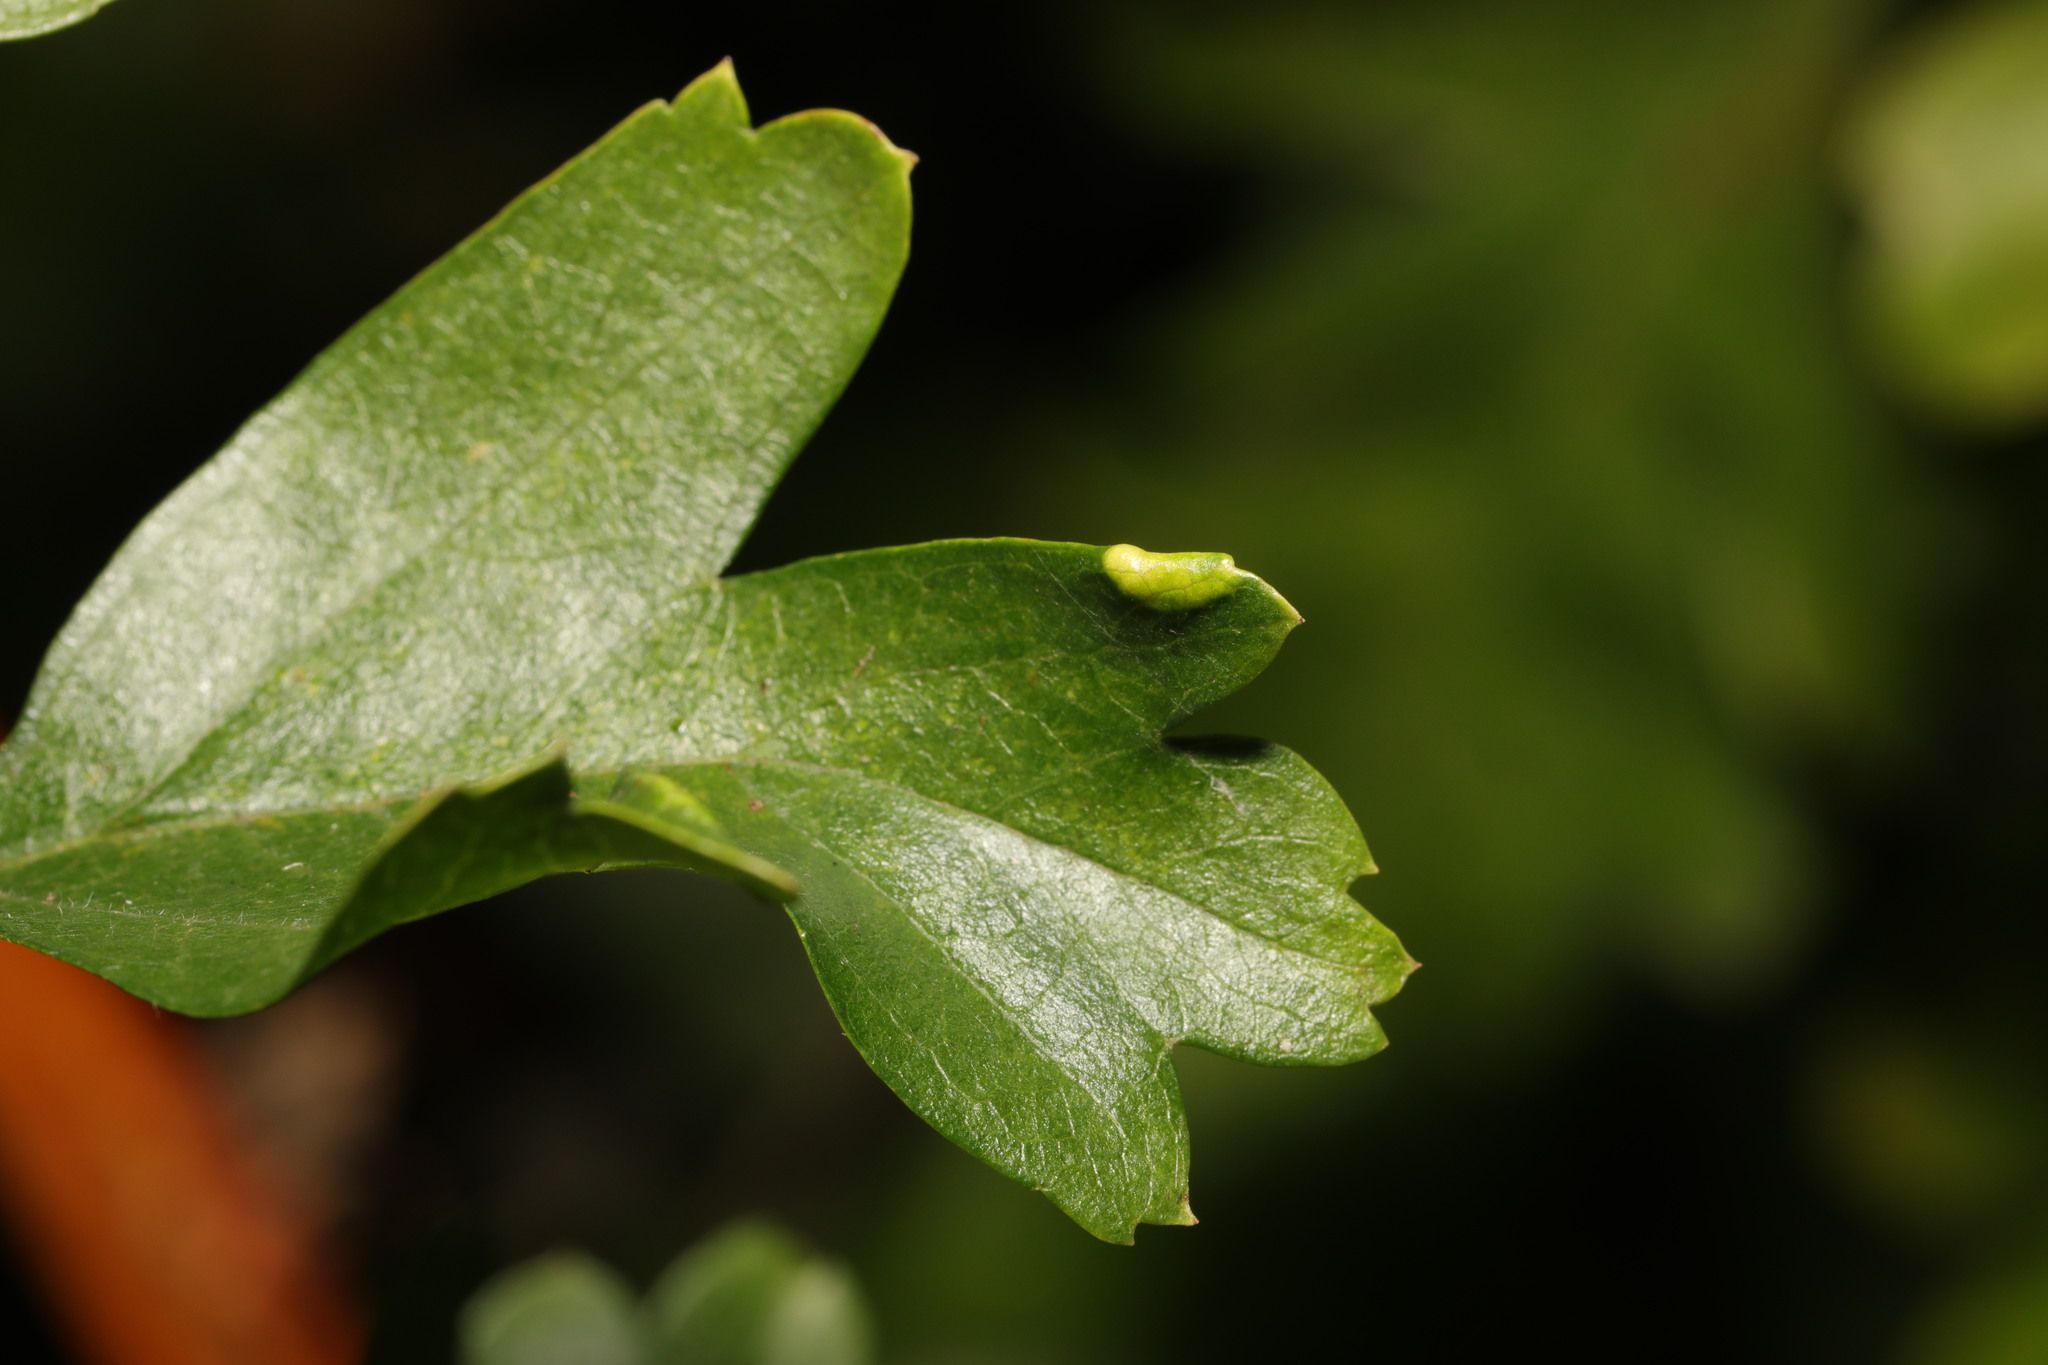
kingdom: Animalia
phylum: Arthropoda
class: Arachnida
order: Trombidiformes
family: Eriophyidae
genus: Phyllocoptes
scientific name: Phyllocoptes goniothorax
